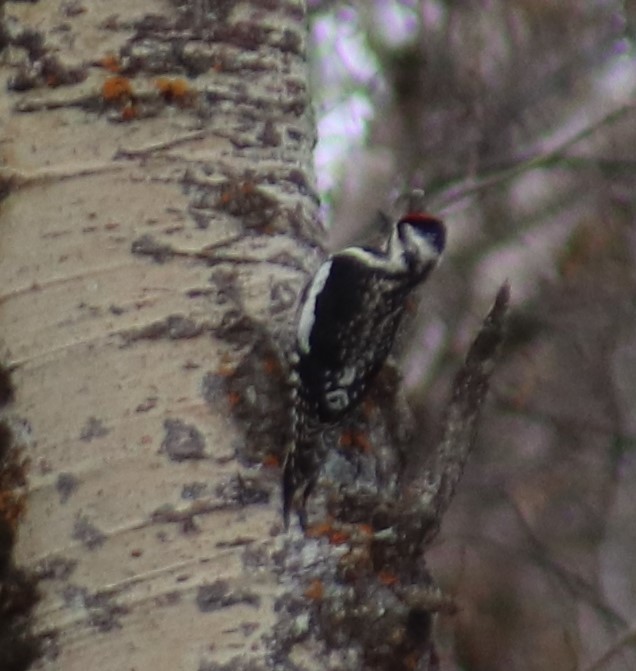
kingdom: Animalia
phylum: Chordata
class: Aves
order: Piciformes
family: Picidae
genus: Sphyrapicus
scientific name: Sphyrapicus varius
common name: Yellow-bellied sapsucker
